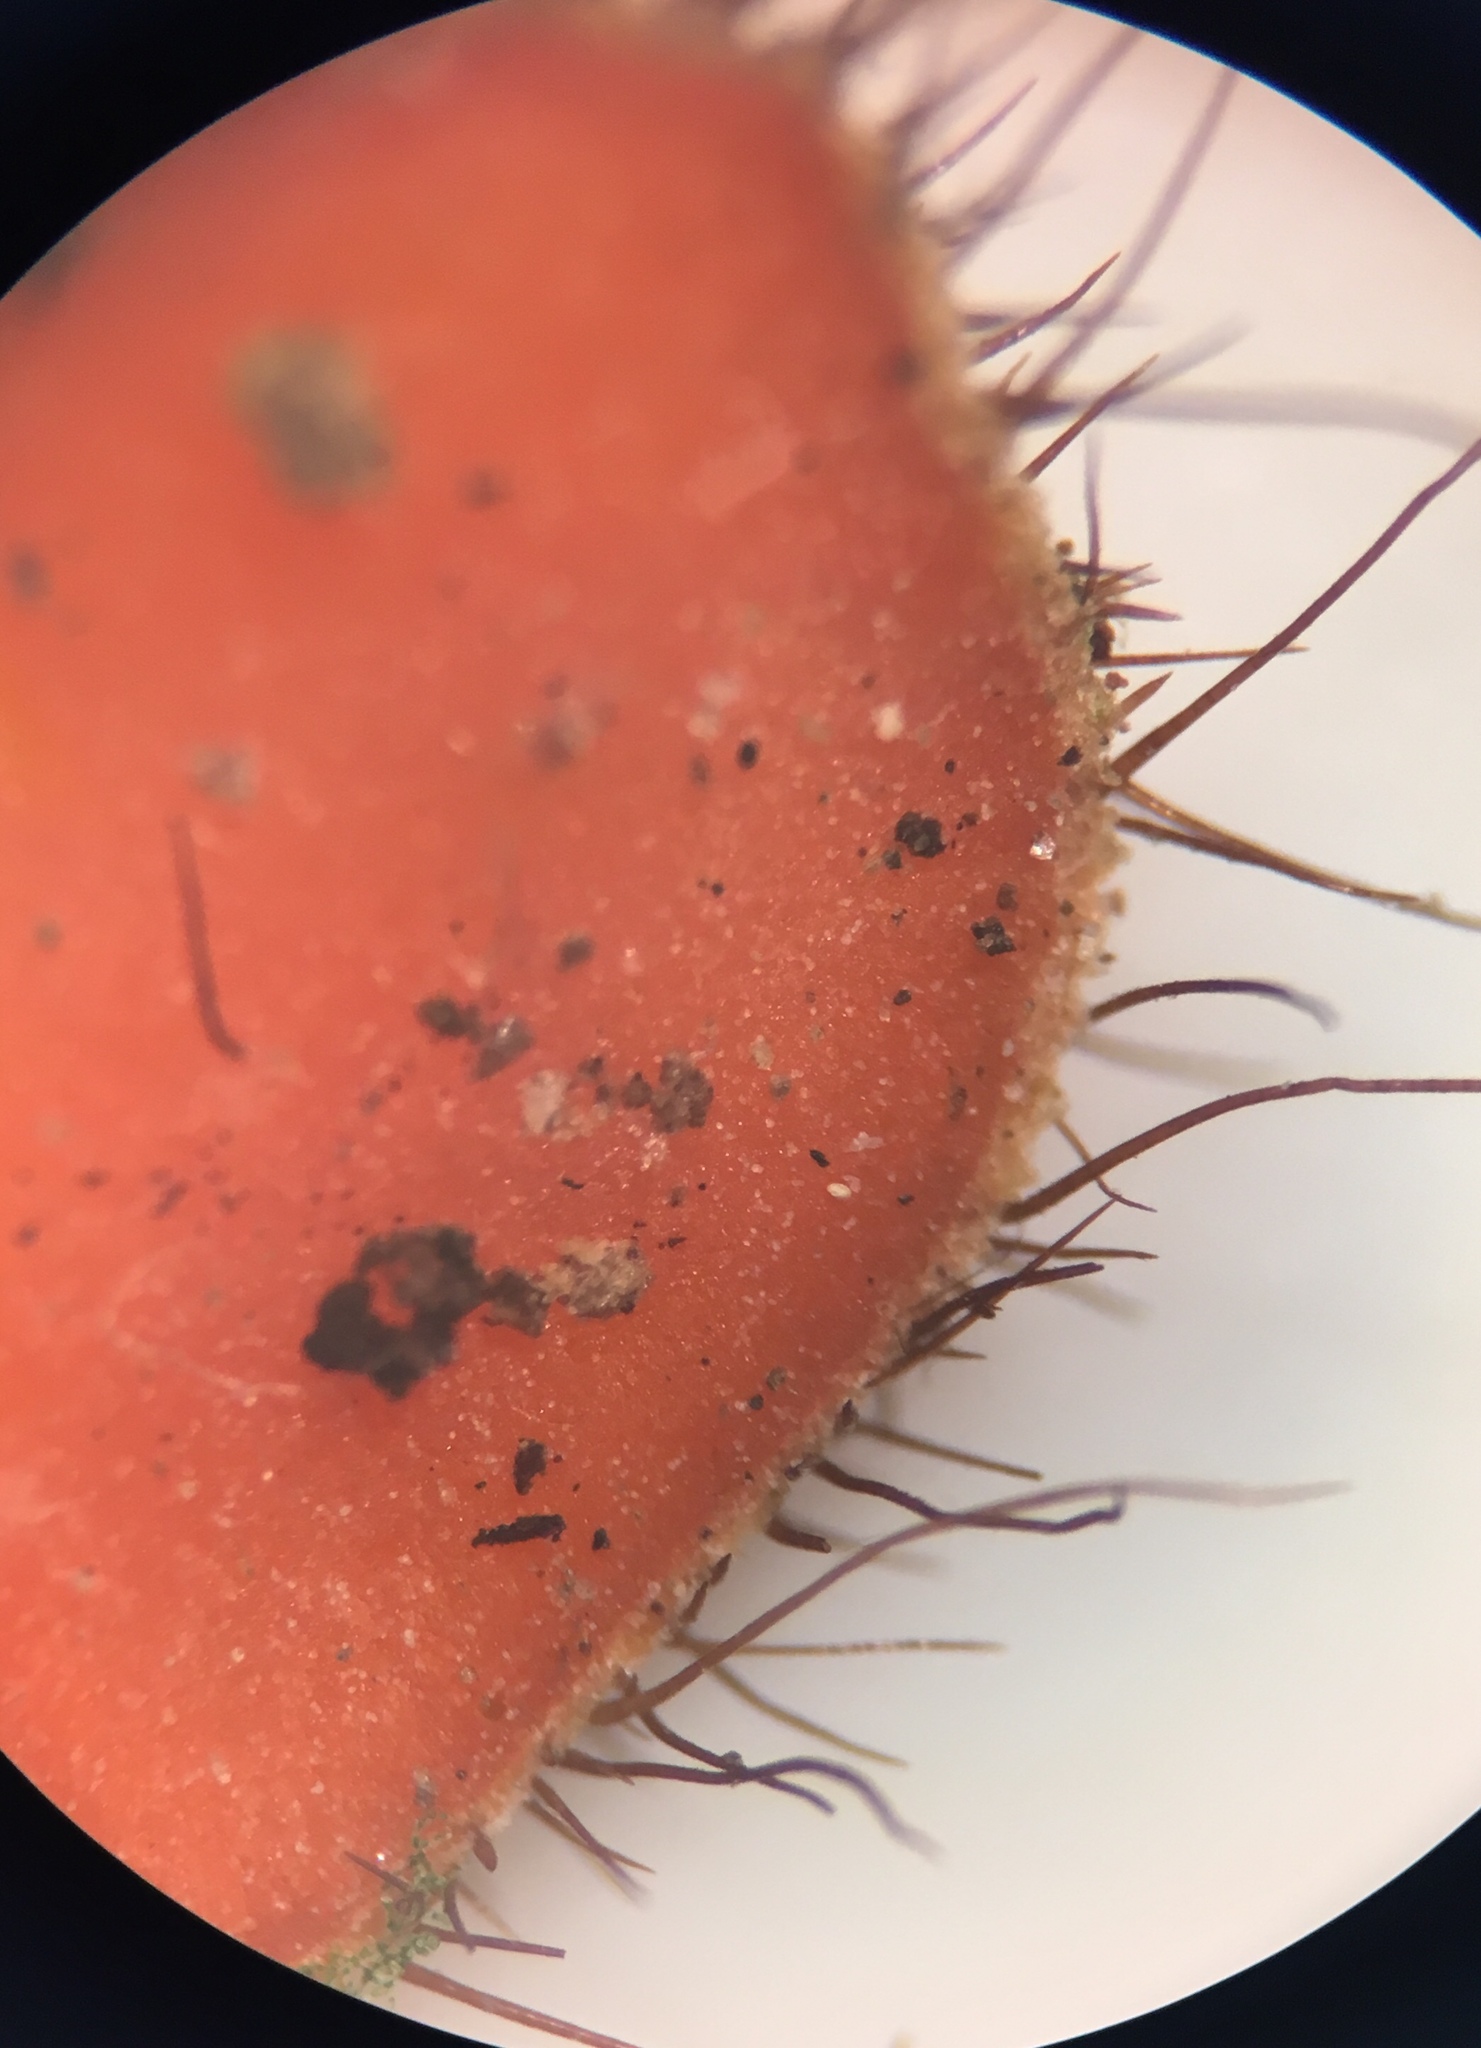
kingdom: Fungi
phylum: Ascomycota
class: Pezizomycetes
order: Pezizales
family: Pyronemataceae
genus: Scutellinia
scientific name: Scutellinia pennsylvanica
